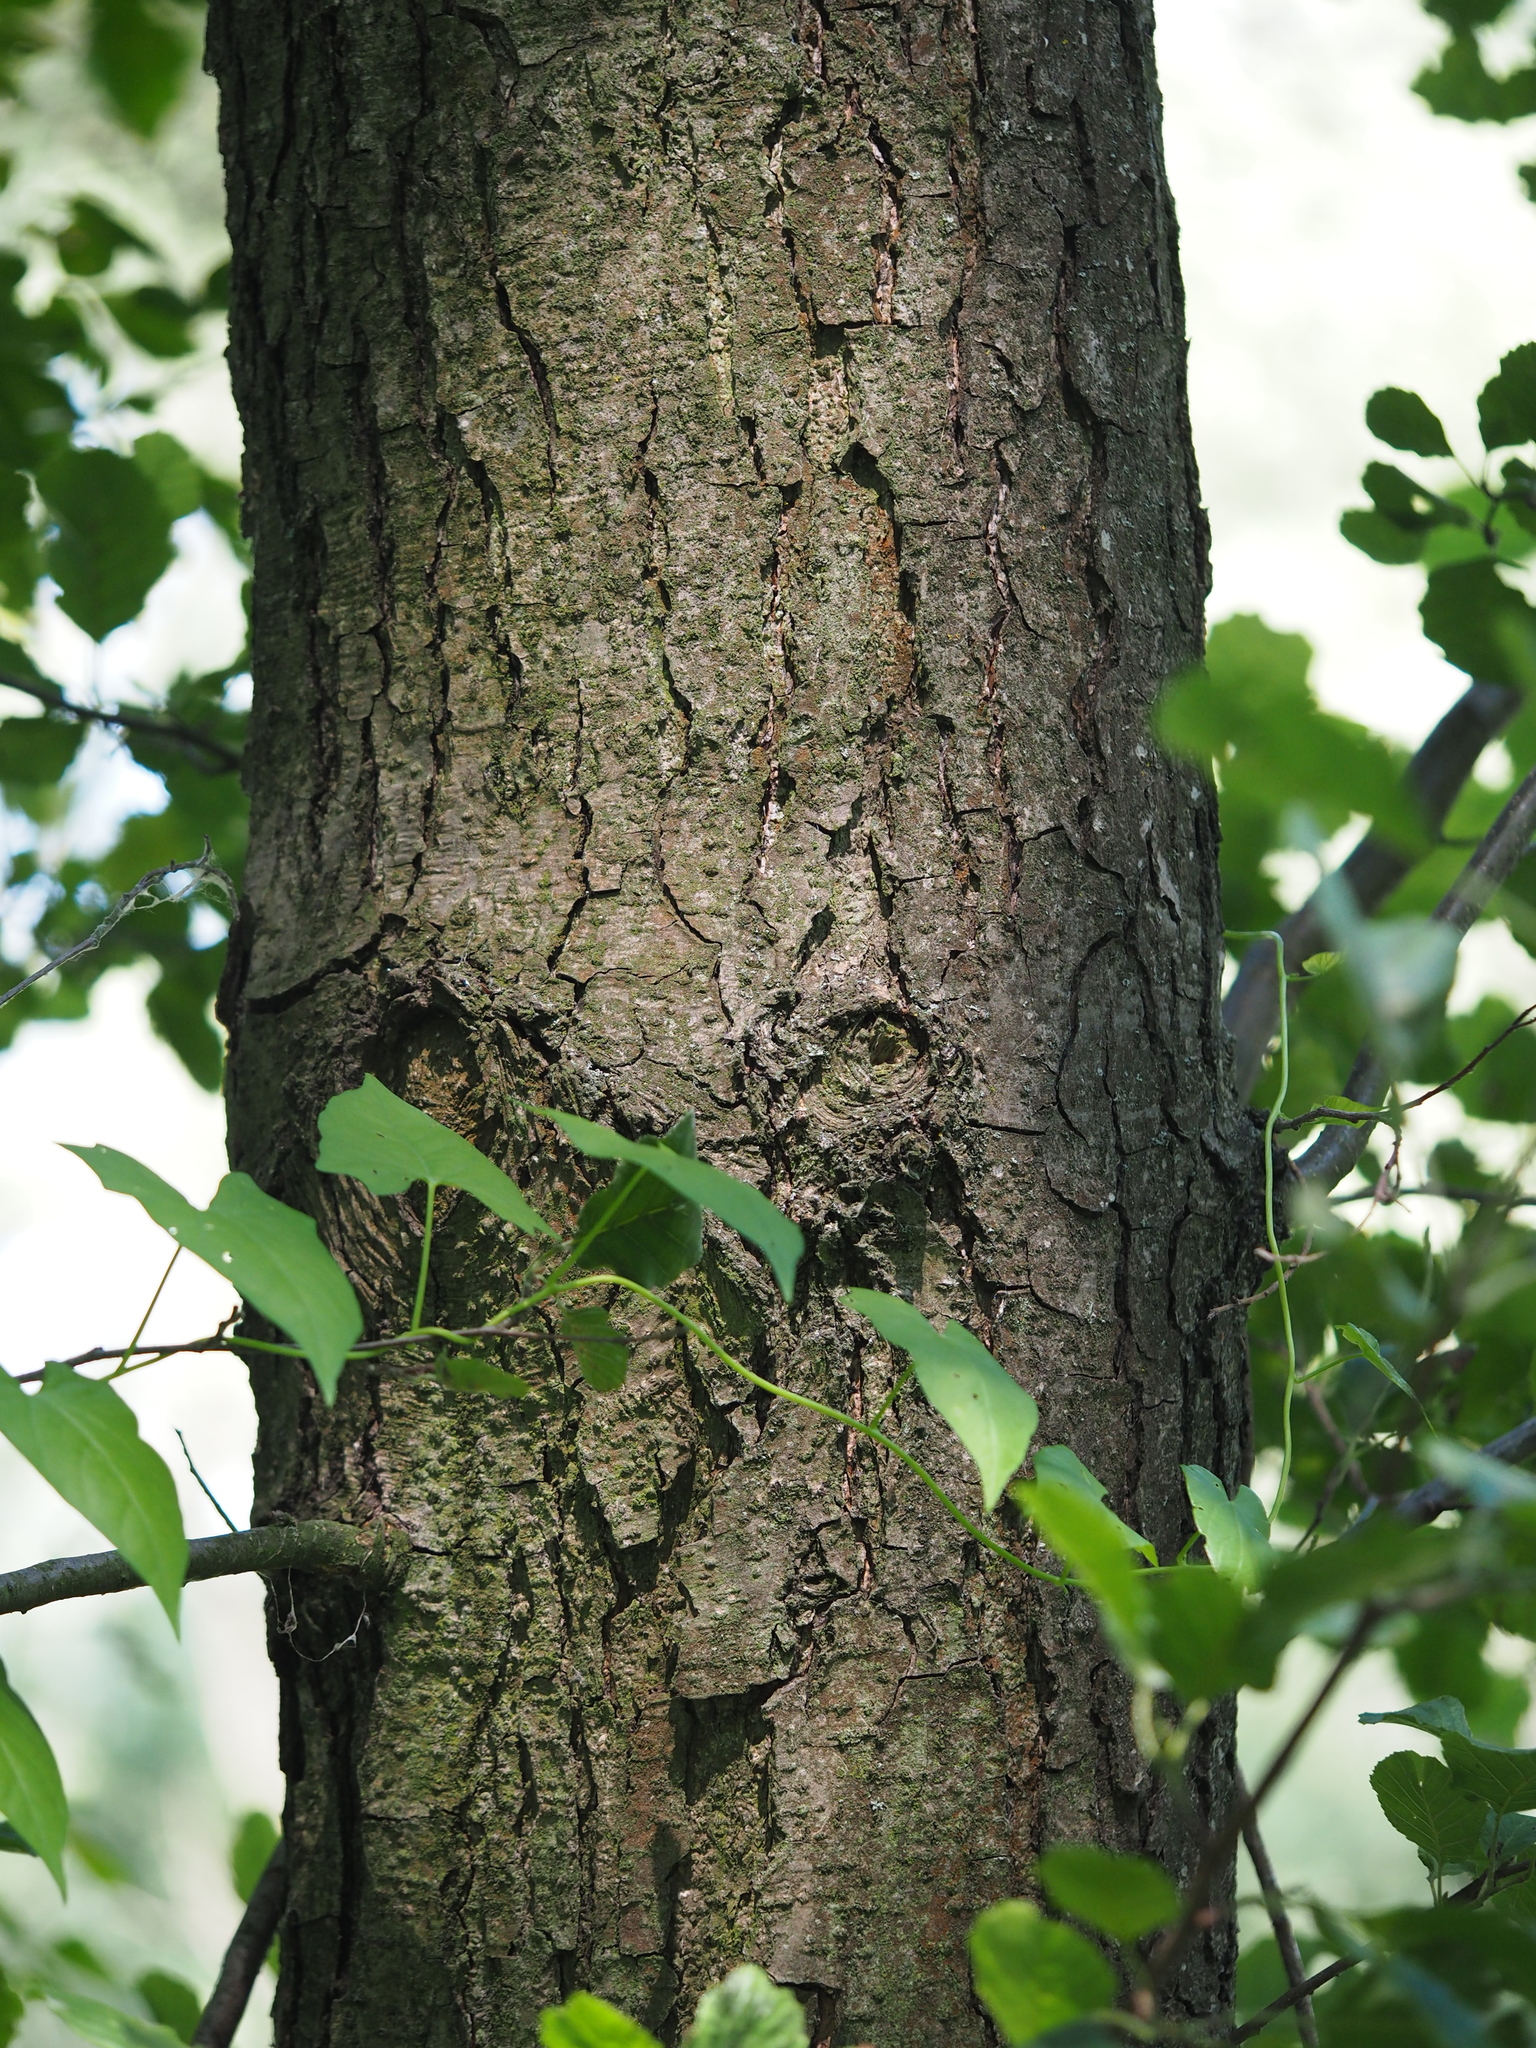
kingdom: Plantae
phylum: Tracheophyta
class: Magnoliopsida
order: Fagales
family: Betulaceae
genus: Alnus
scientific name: Alnus glutinosa
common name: Black alder
